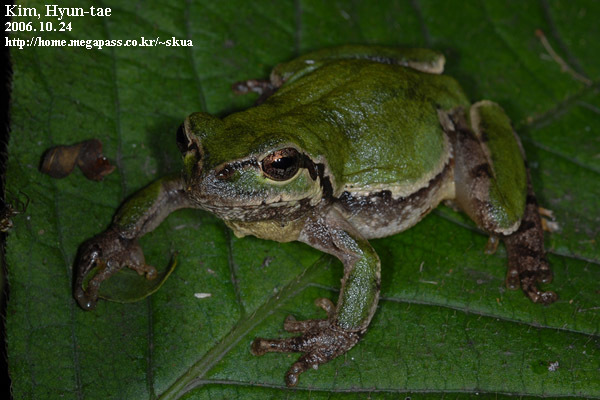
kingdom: Animalia
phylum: Chordata
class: Amphibia
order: Anura
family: Hylidae
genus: Dryophytes
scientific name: Dryophytes japonicus
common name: Japanese treefrog
